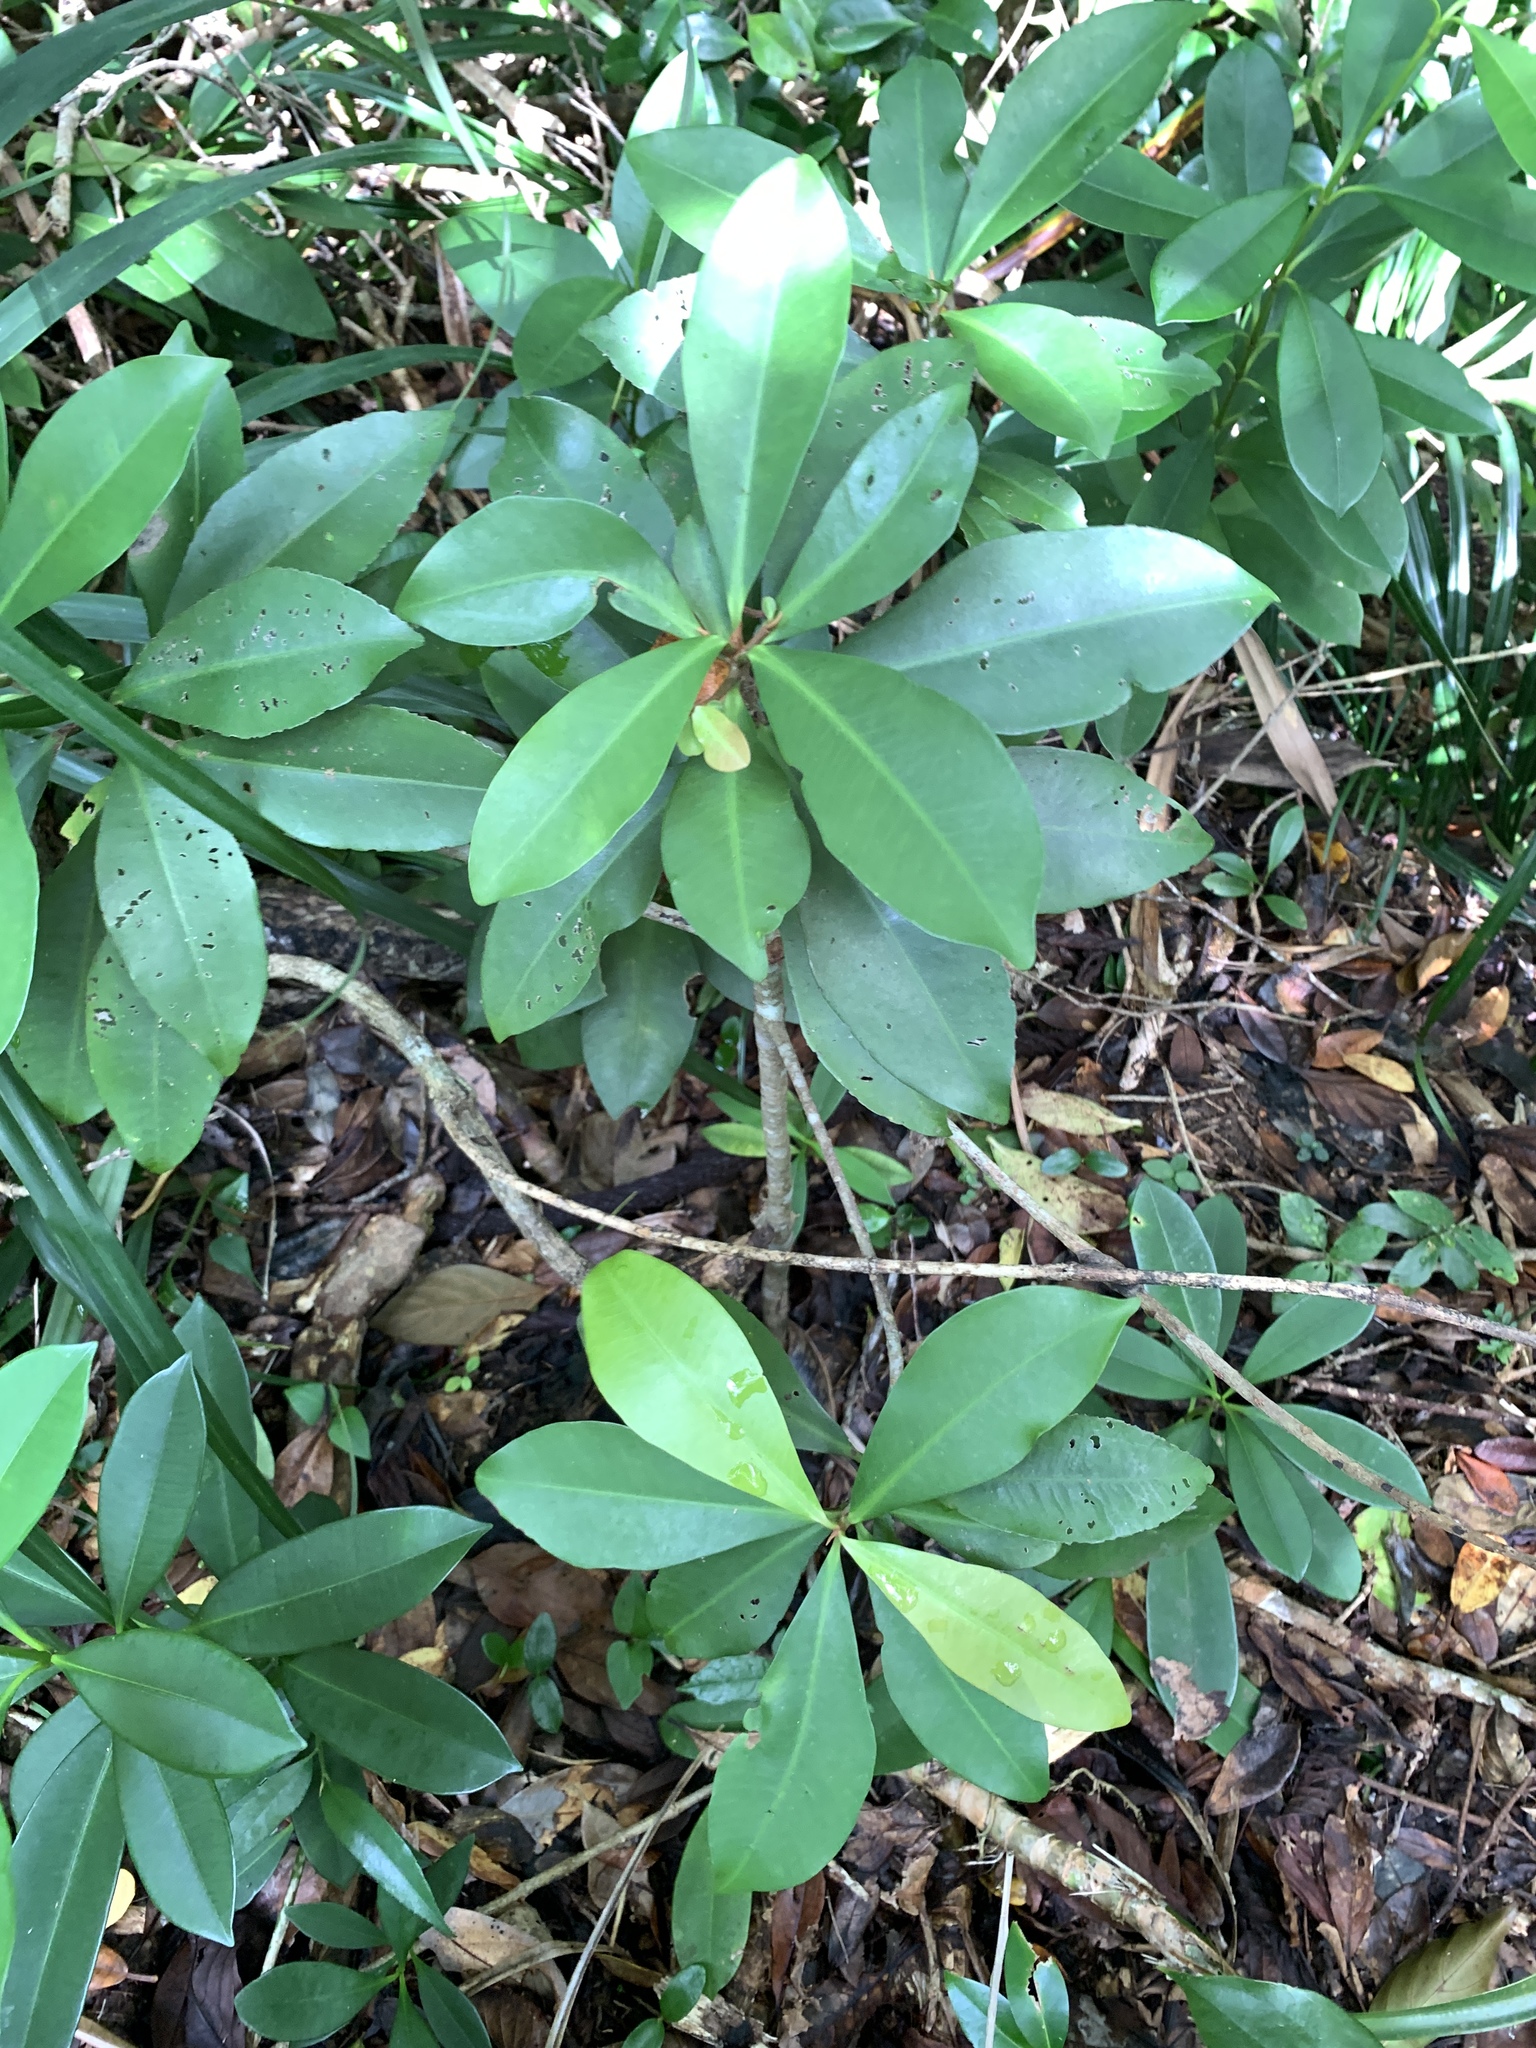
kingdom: Plantae
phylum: Tracheophyta
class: Magnoliopsida
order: Ericales
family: Primulaceae
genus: Ardisia
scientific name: Ardisia sieboldii
